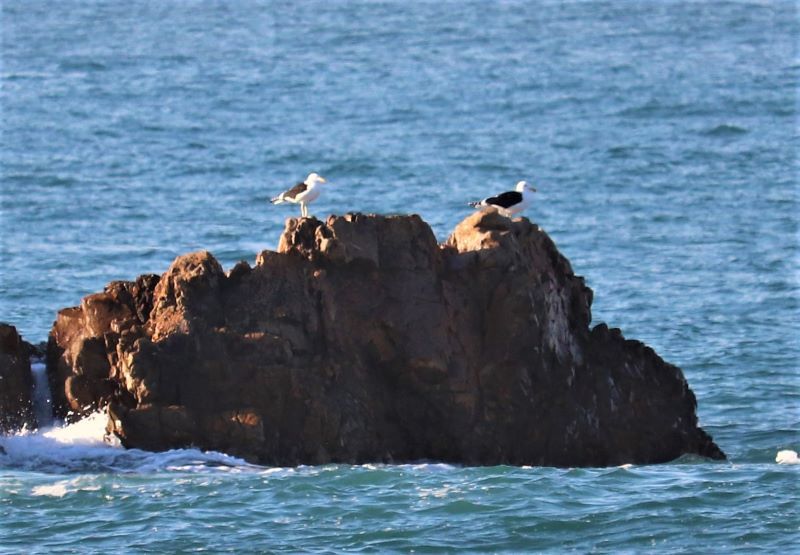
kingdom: Animalia
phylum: Chordata
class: Aves
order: Charadriiformes
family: Laridae
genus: Larus
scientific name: Larus dominicanus
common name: Kelp gull
